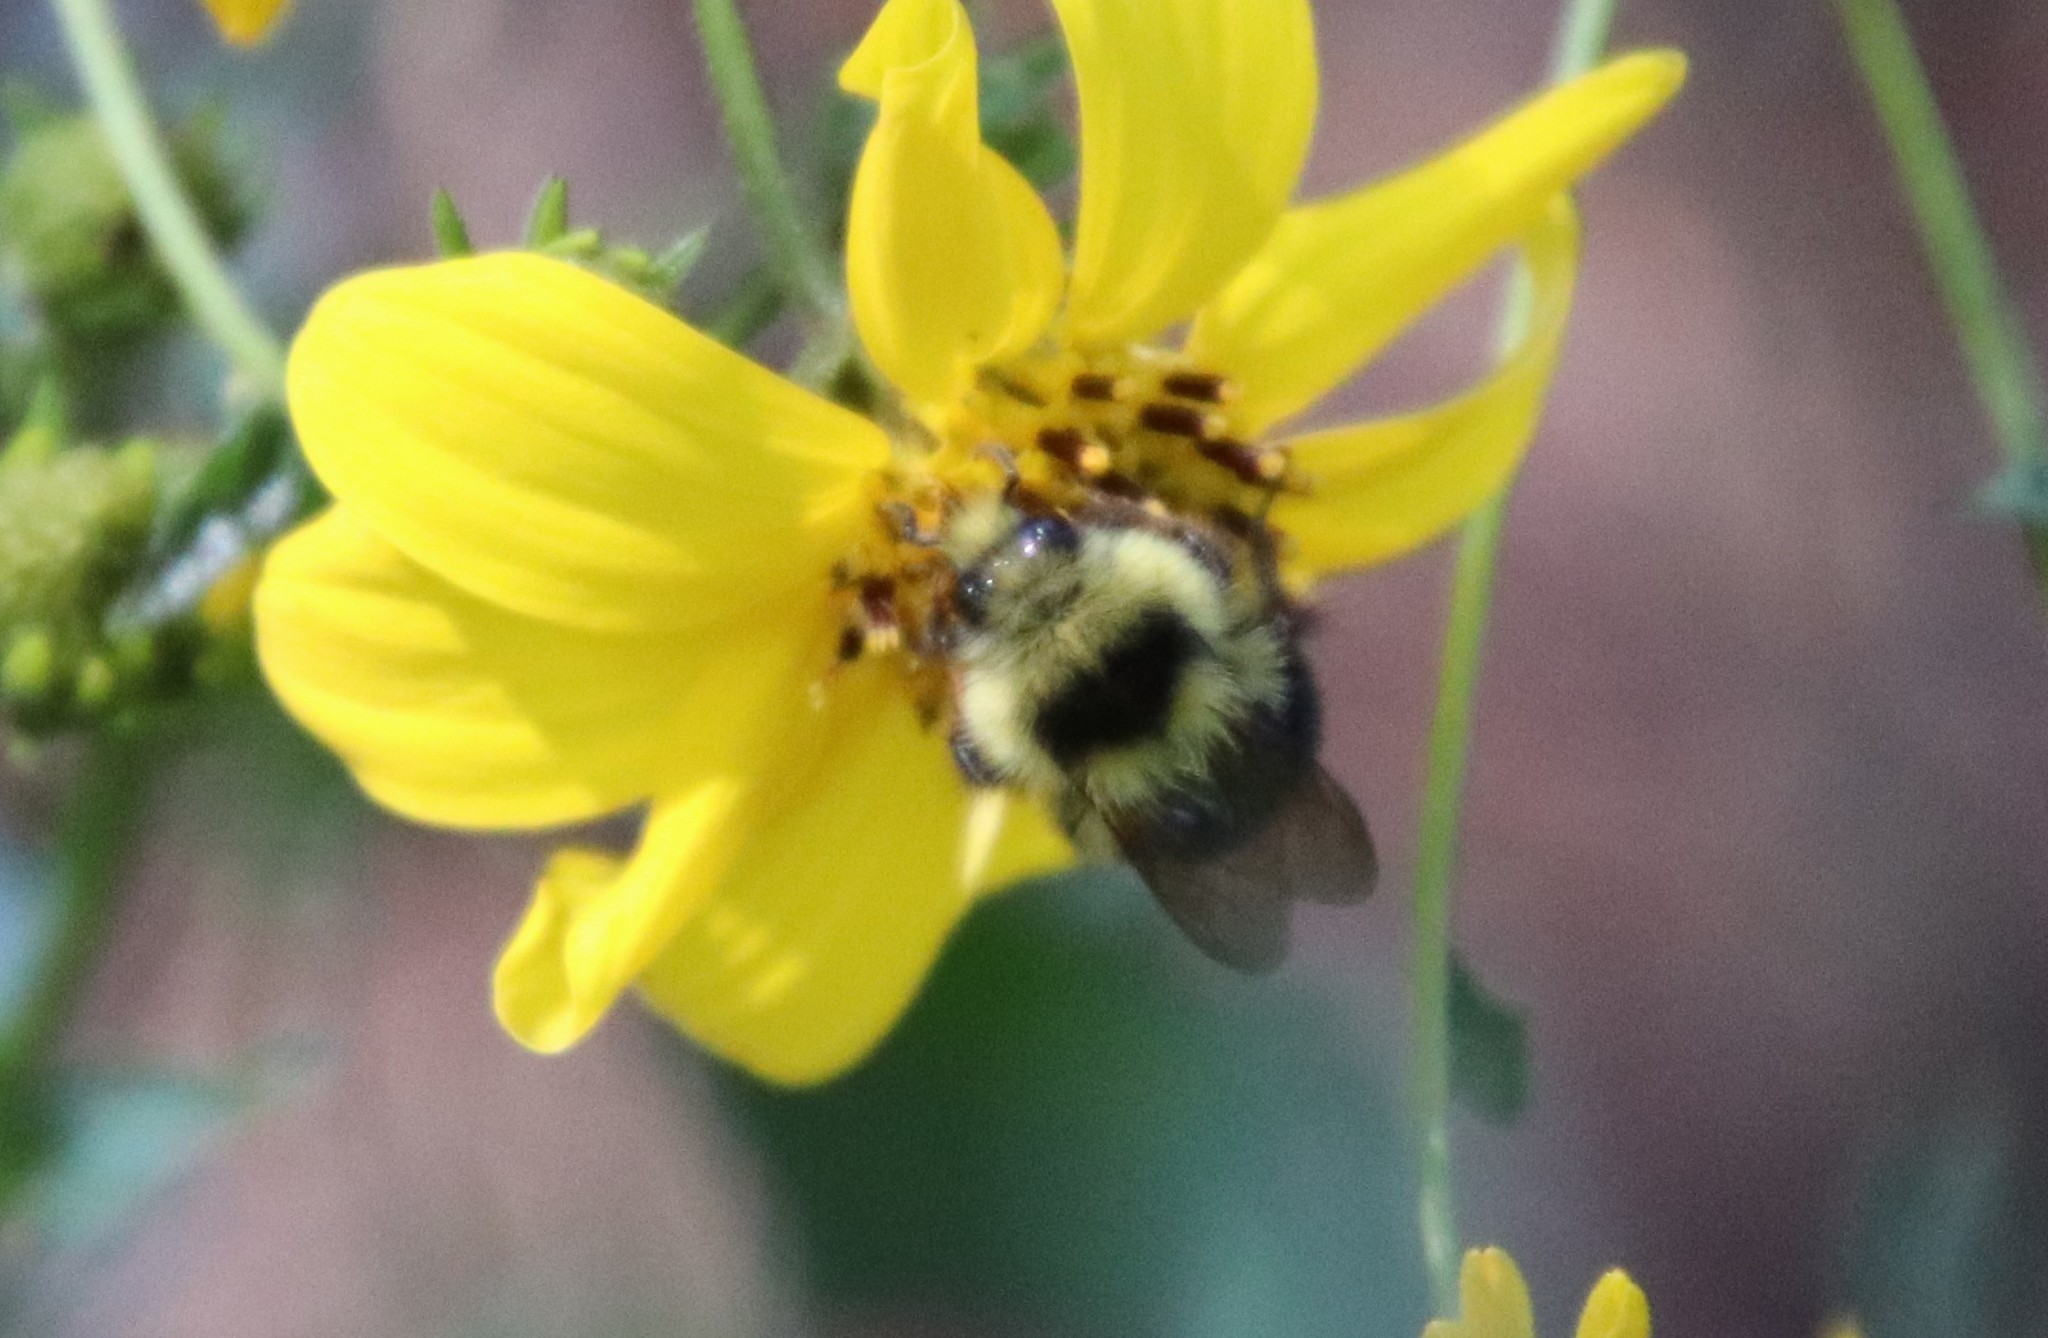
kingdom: Animalia
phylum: Arthropoda
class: Insecta
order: Hymenoptera
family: Apidae
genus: Bombus
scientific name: Bombus melanopygus
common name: Black tail bumble bee
